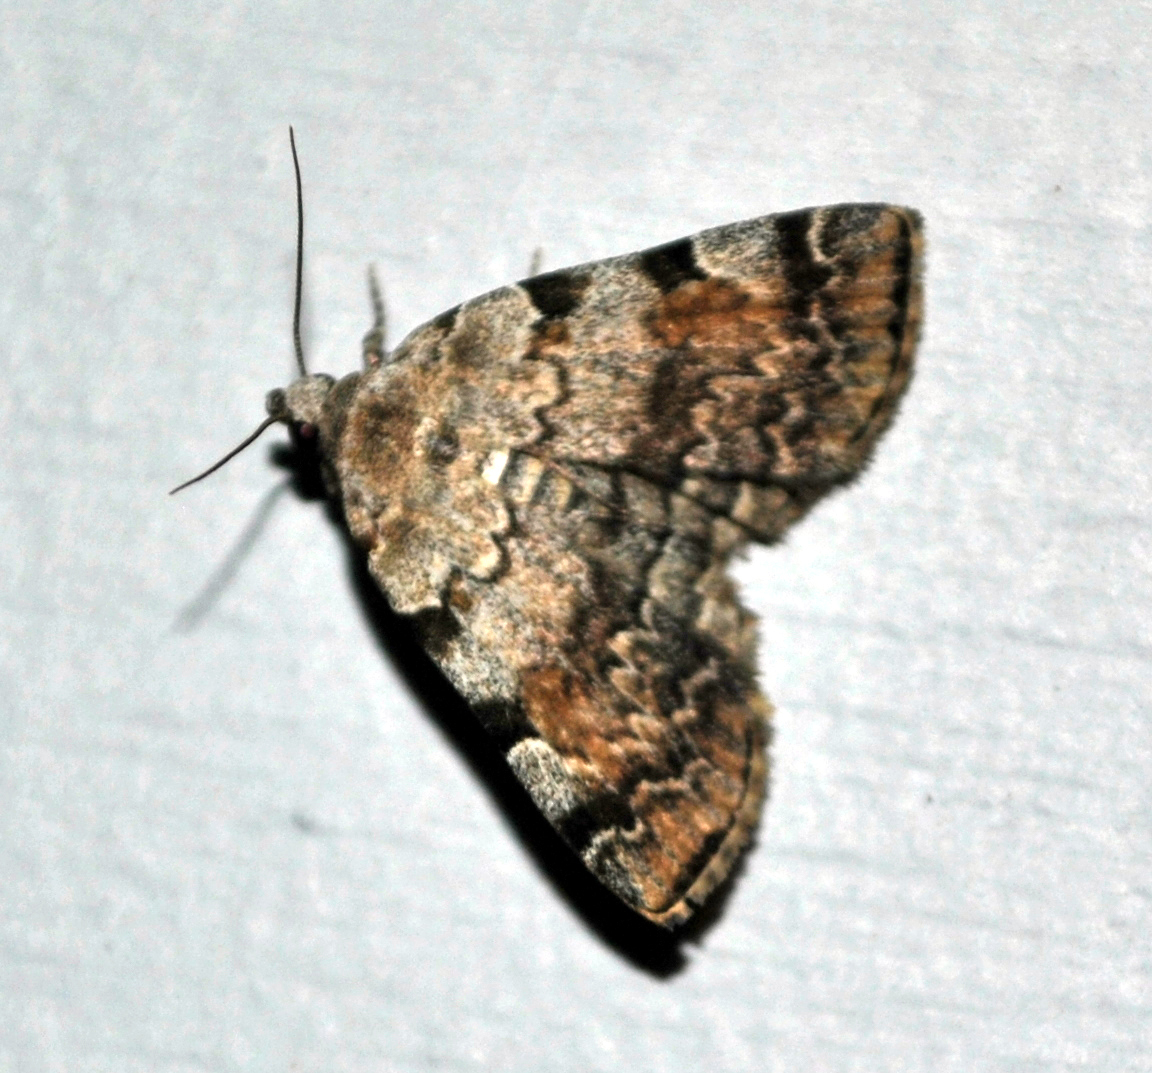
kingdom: Animalia
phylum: Arthropoda
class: Insecta
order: Lepidoptera
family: Erebidae
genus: Idia
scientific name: Idia americalis
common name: American idia moth
